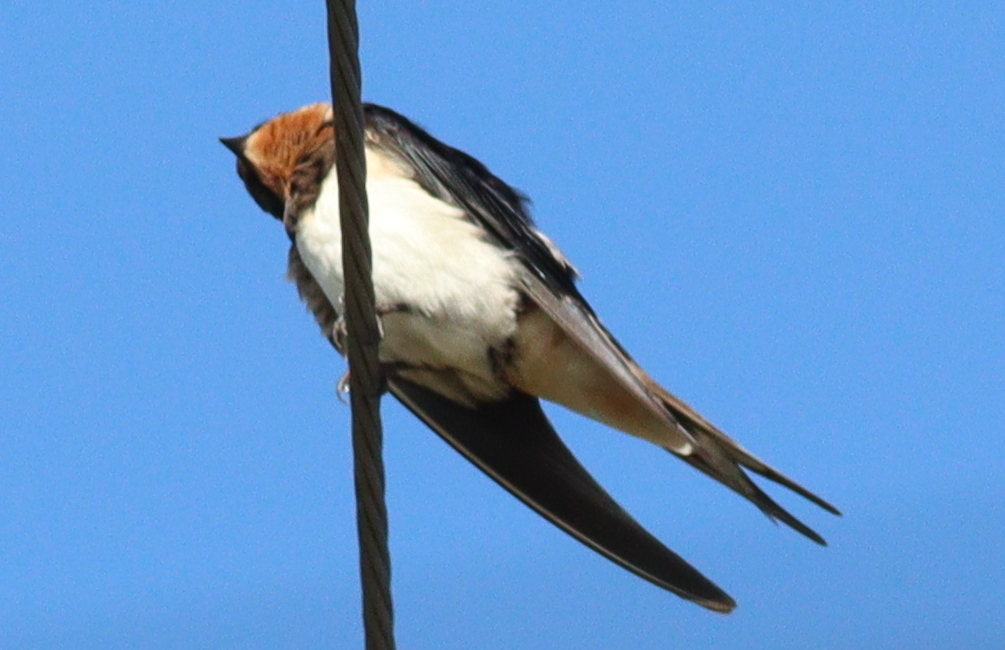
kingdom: Animalia
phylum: Chordata
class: Aves
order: Passeriformes
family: Hirundinidae
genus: Hirundo
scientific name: Hirundo rustica
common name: Barn swallow
